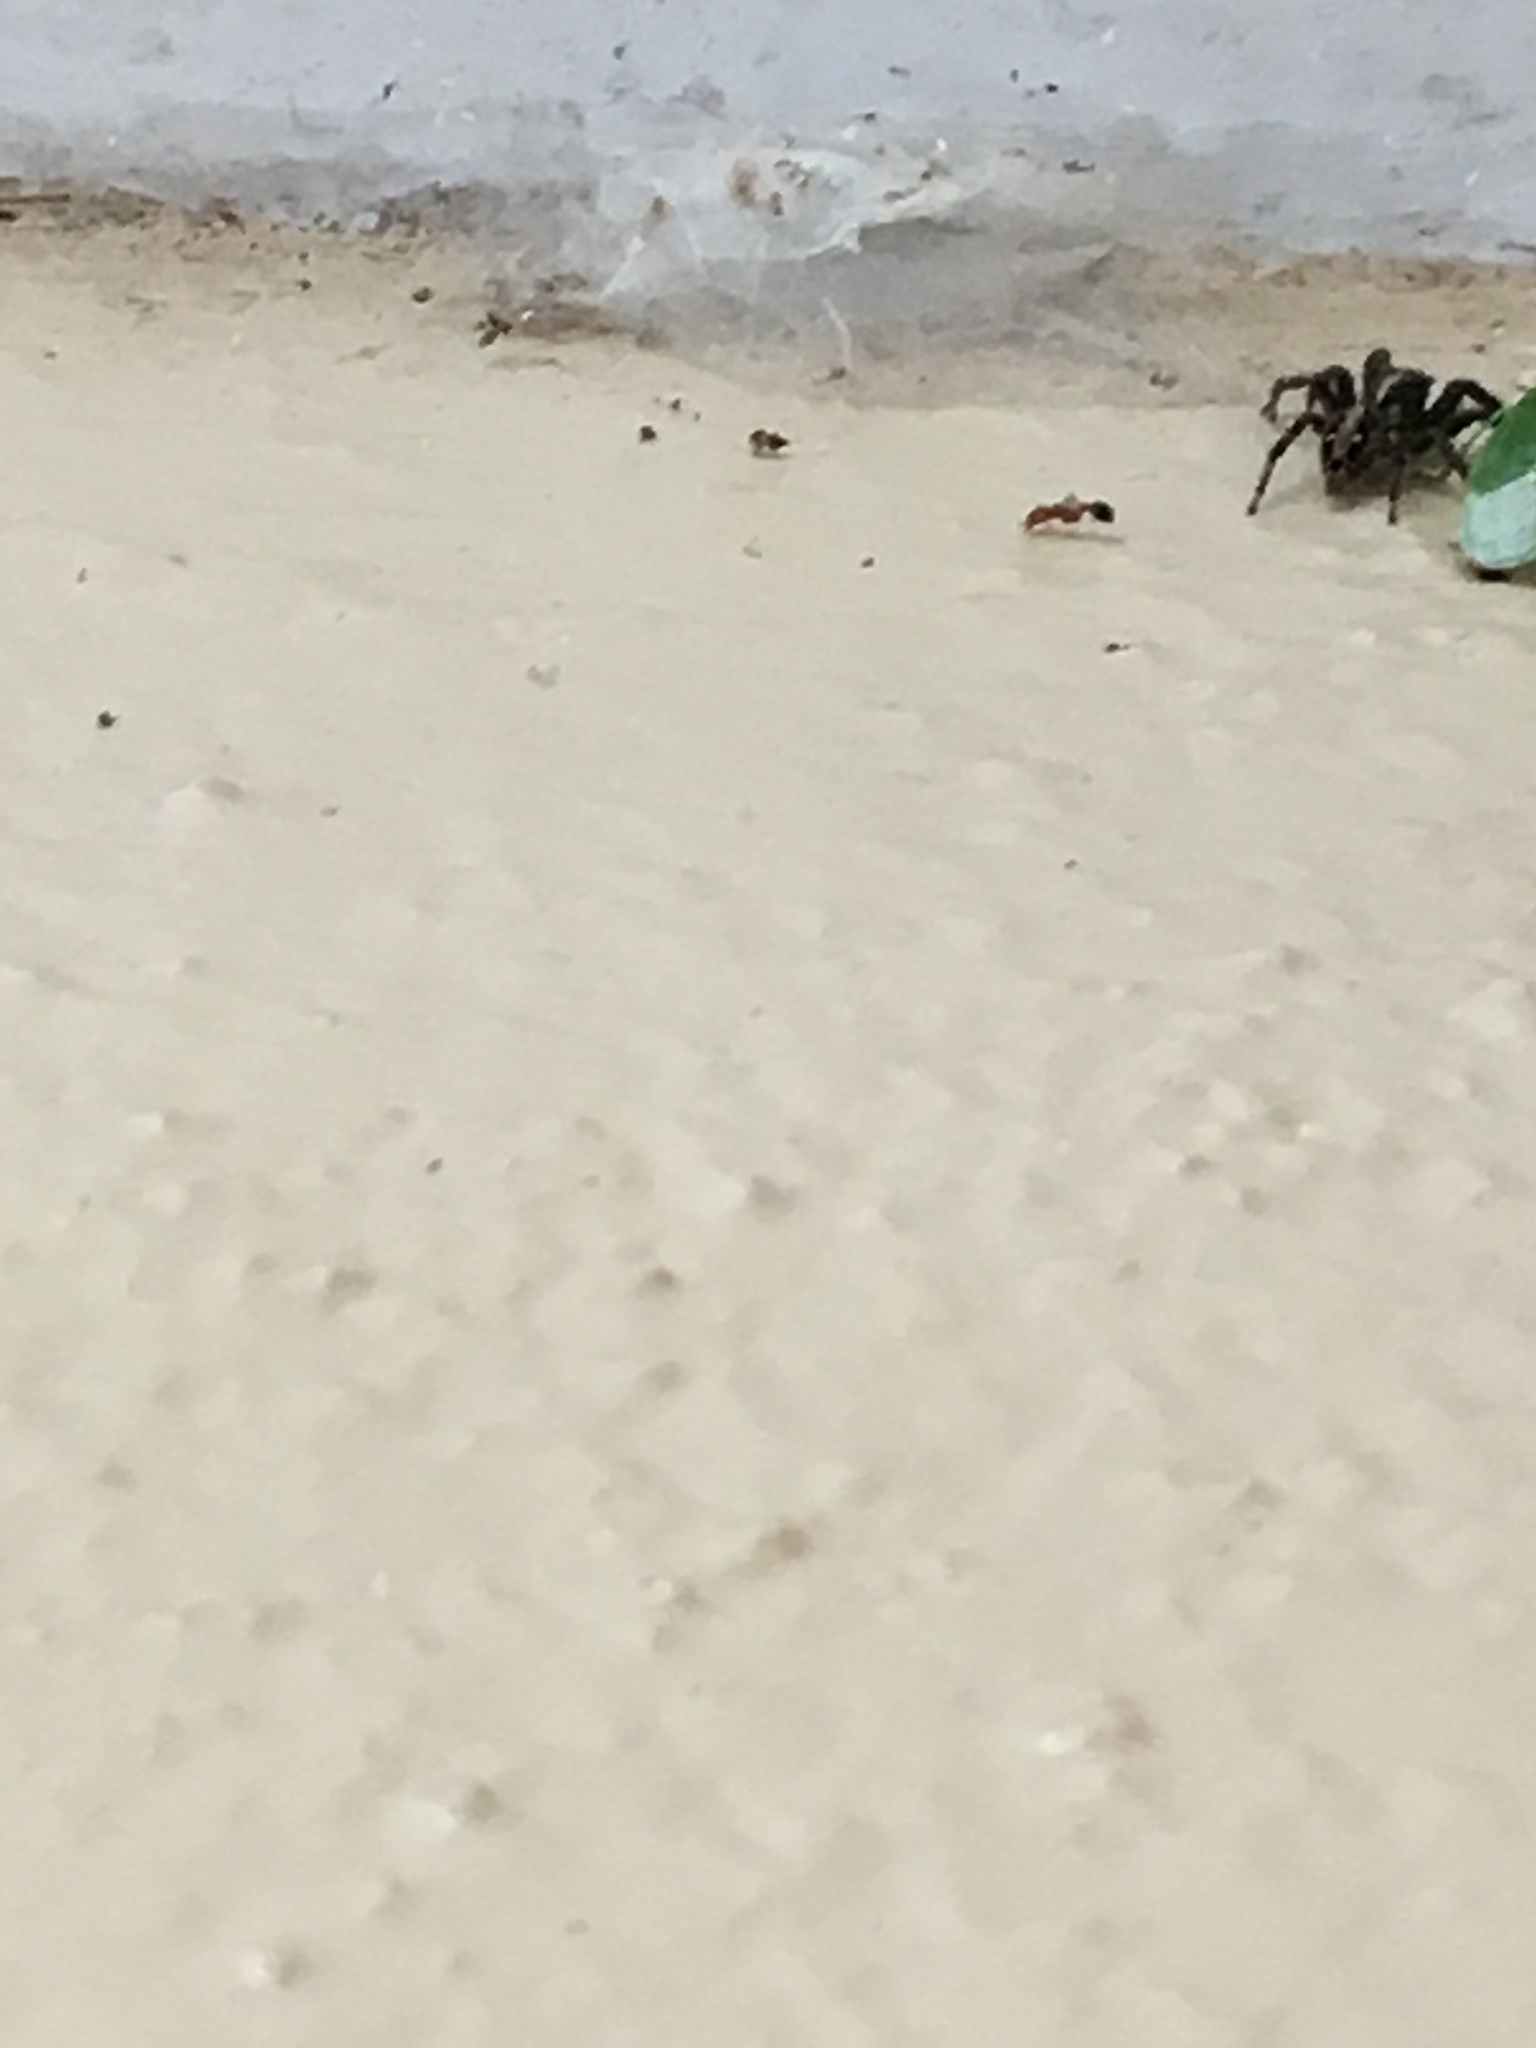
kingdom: Animalia
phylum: Arthropoda
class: Arachnida
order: Araneae
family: Salticidae
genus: Plexippus
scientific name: Plexippus paykulli
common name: Pantropical jumper
